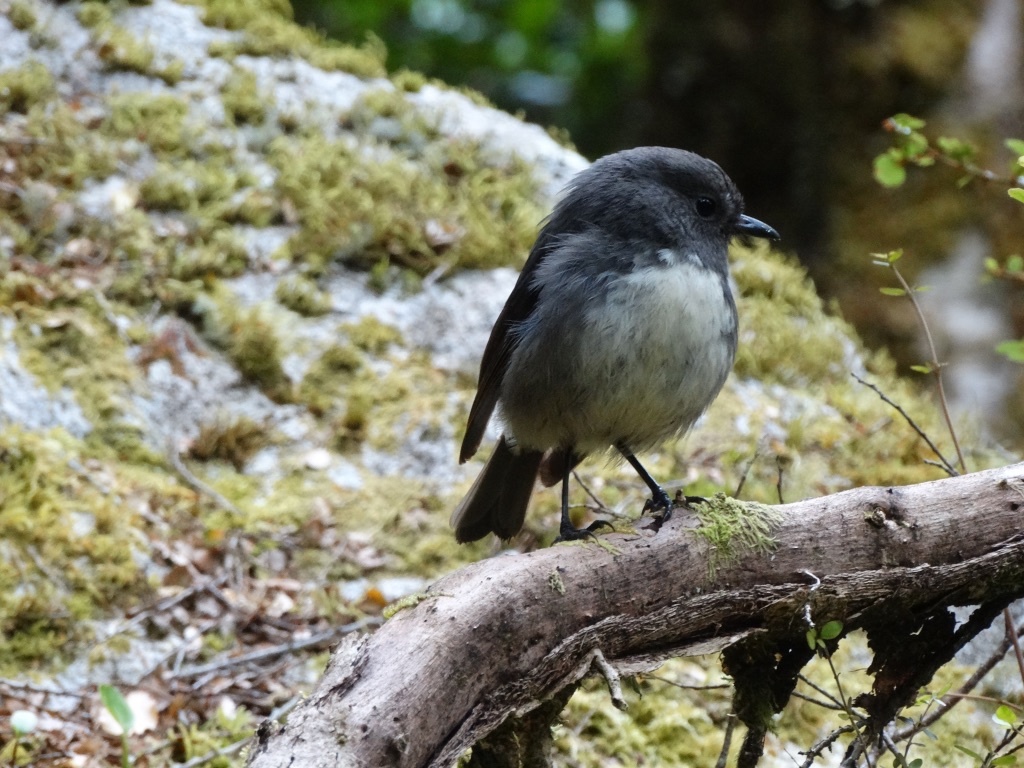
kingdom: Animalia
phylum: Chordata
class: Aves
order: Passeriformes
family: Petroicidae
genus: Petroica
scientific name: Petroica australis
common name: New zealand robin
